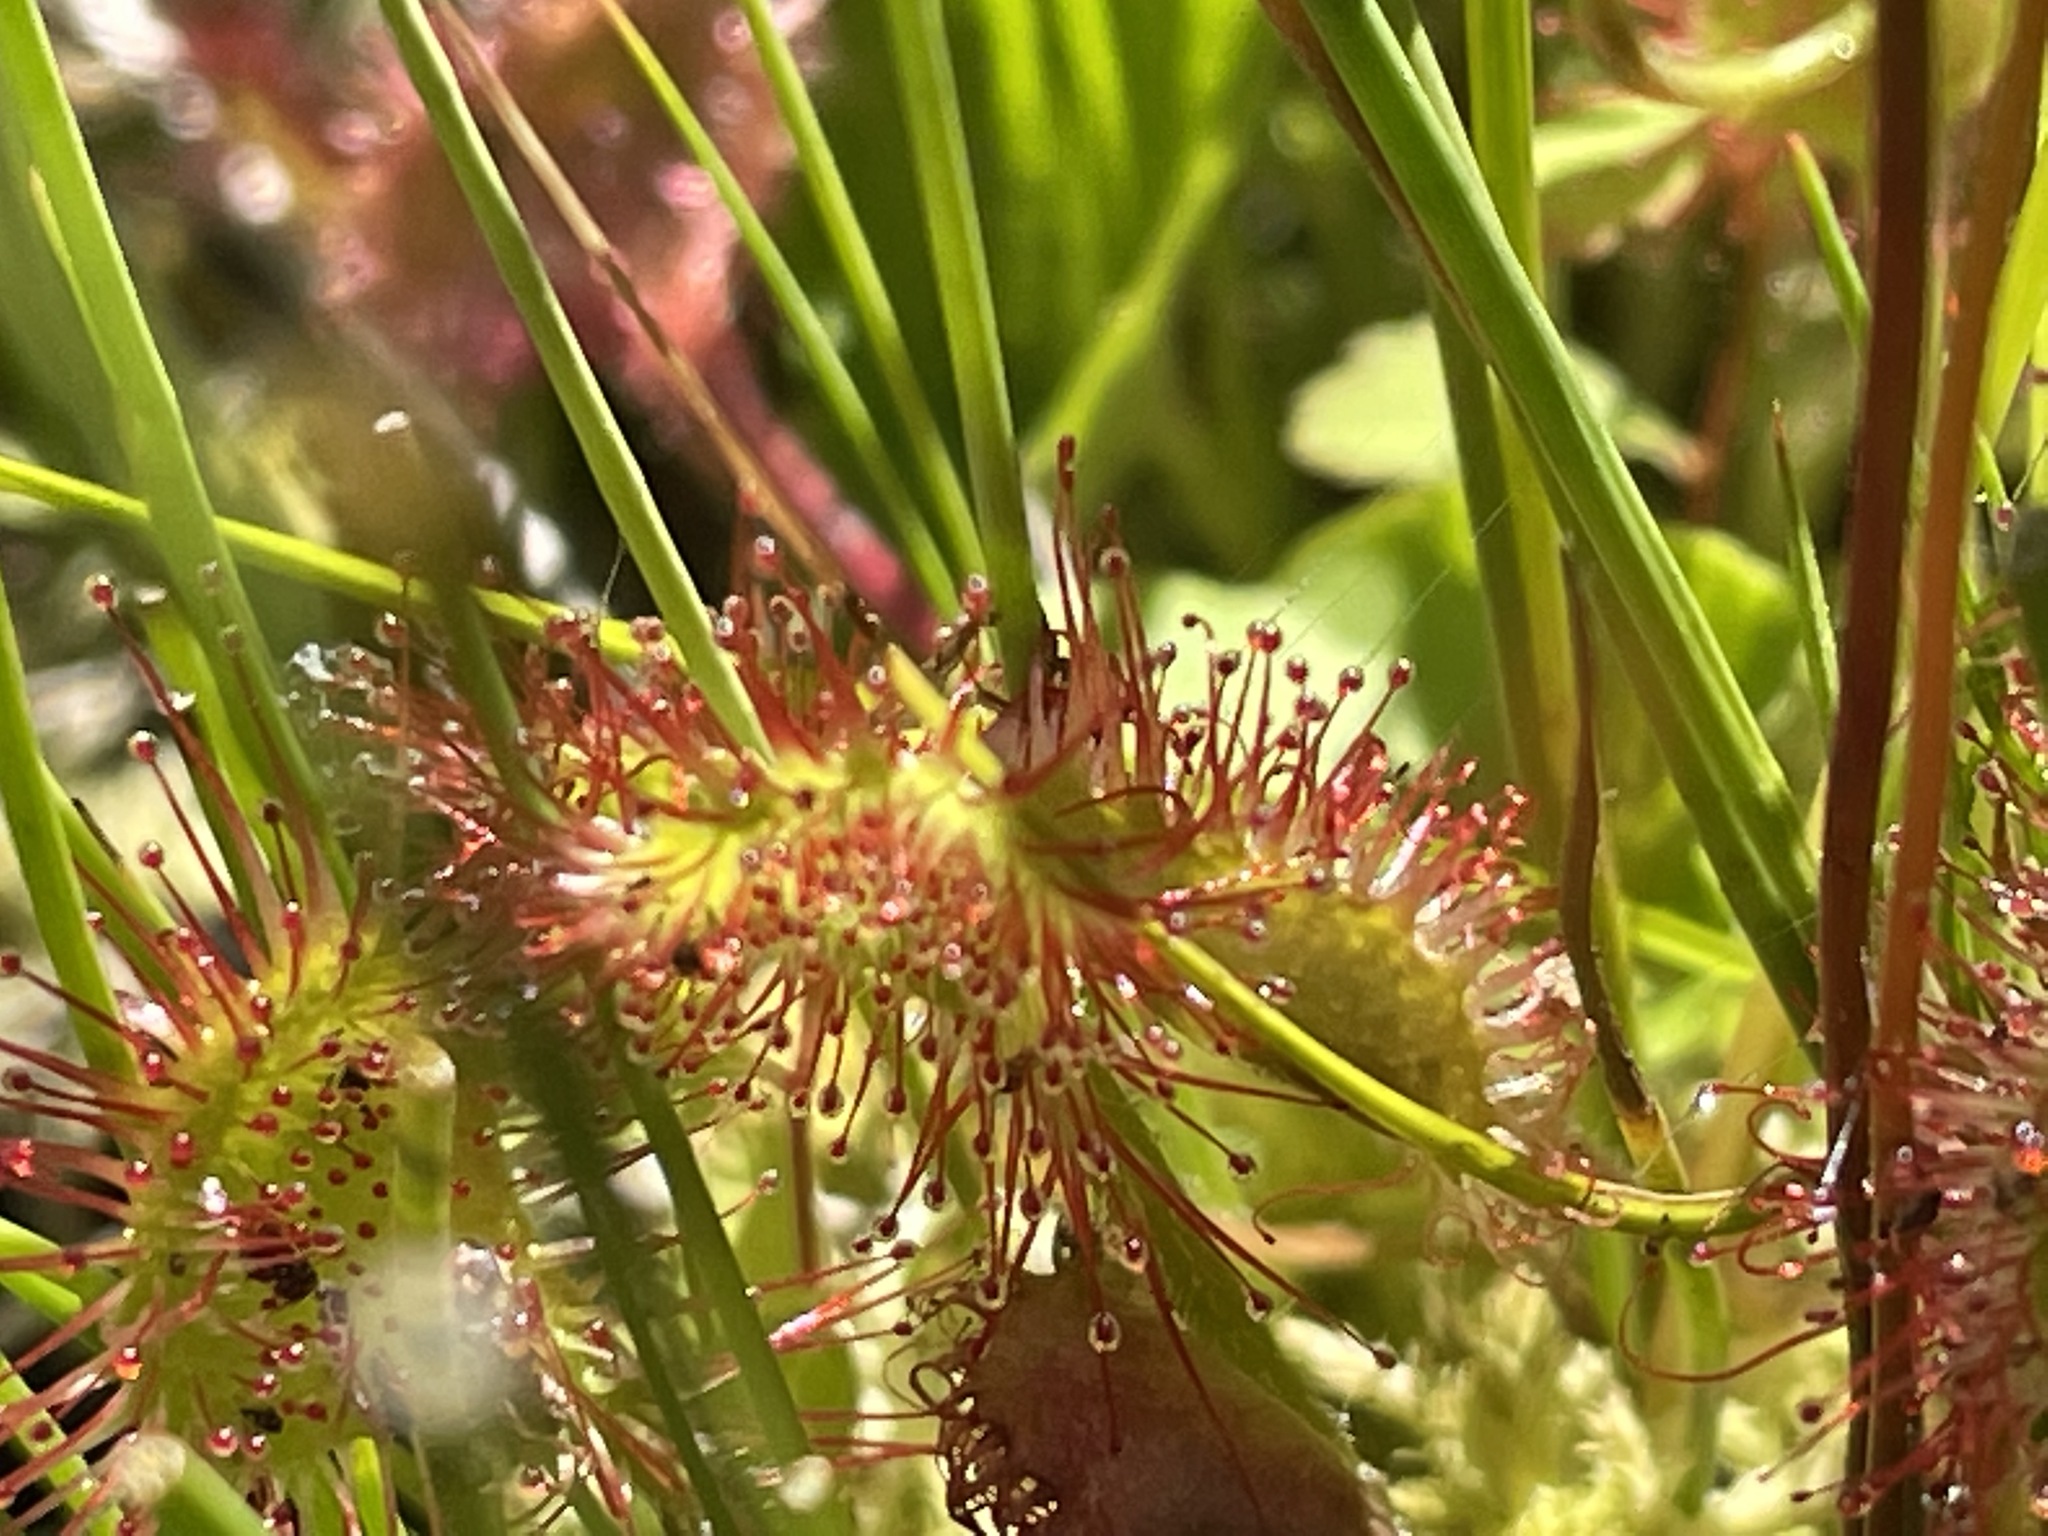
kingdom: Plantae
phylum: Tracheophyta
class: Magnoliopsida
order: Caryophyllales
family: Droseraceae
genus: Drosera
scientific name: Drosera rotundifolia
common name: Round-leaved sundew
